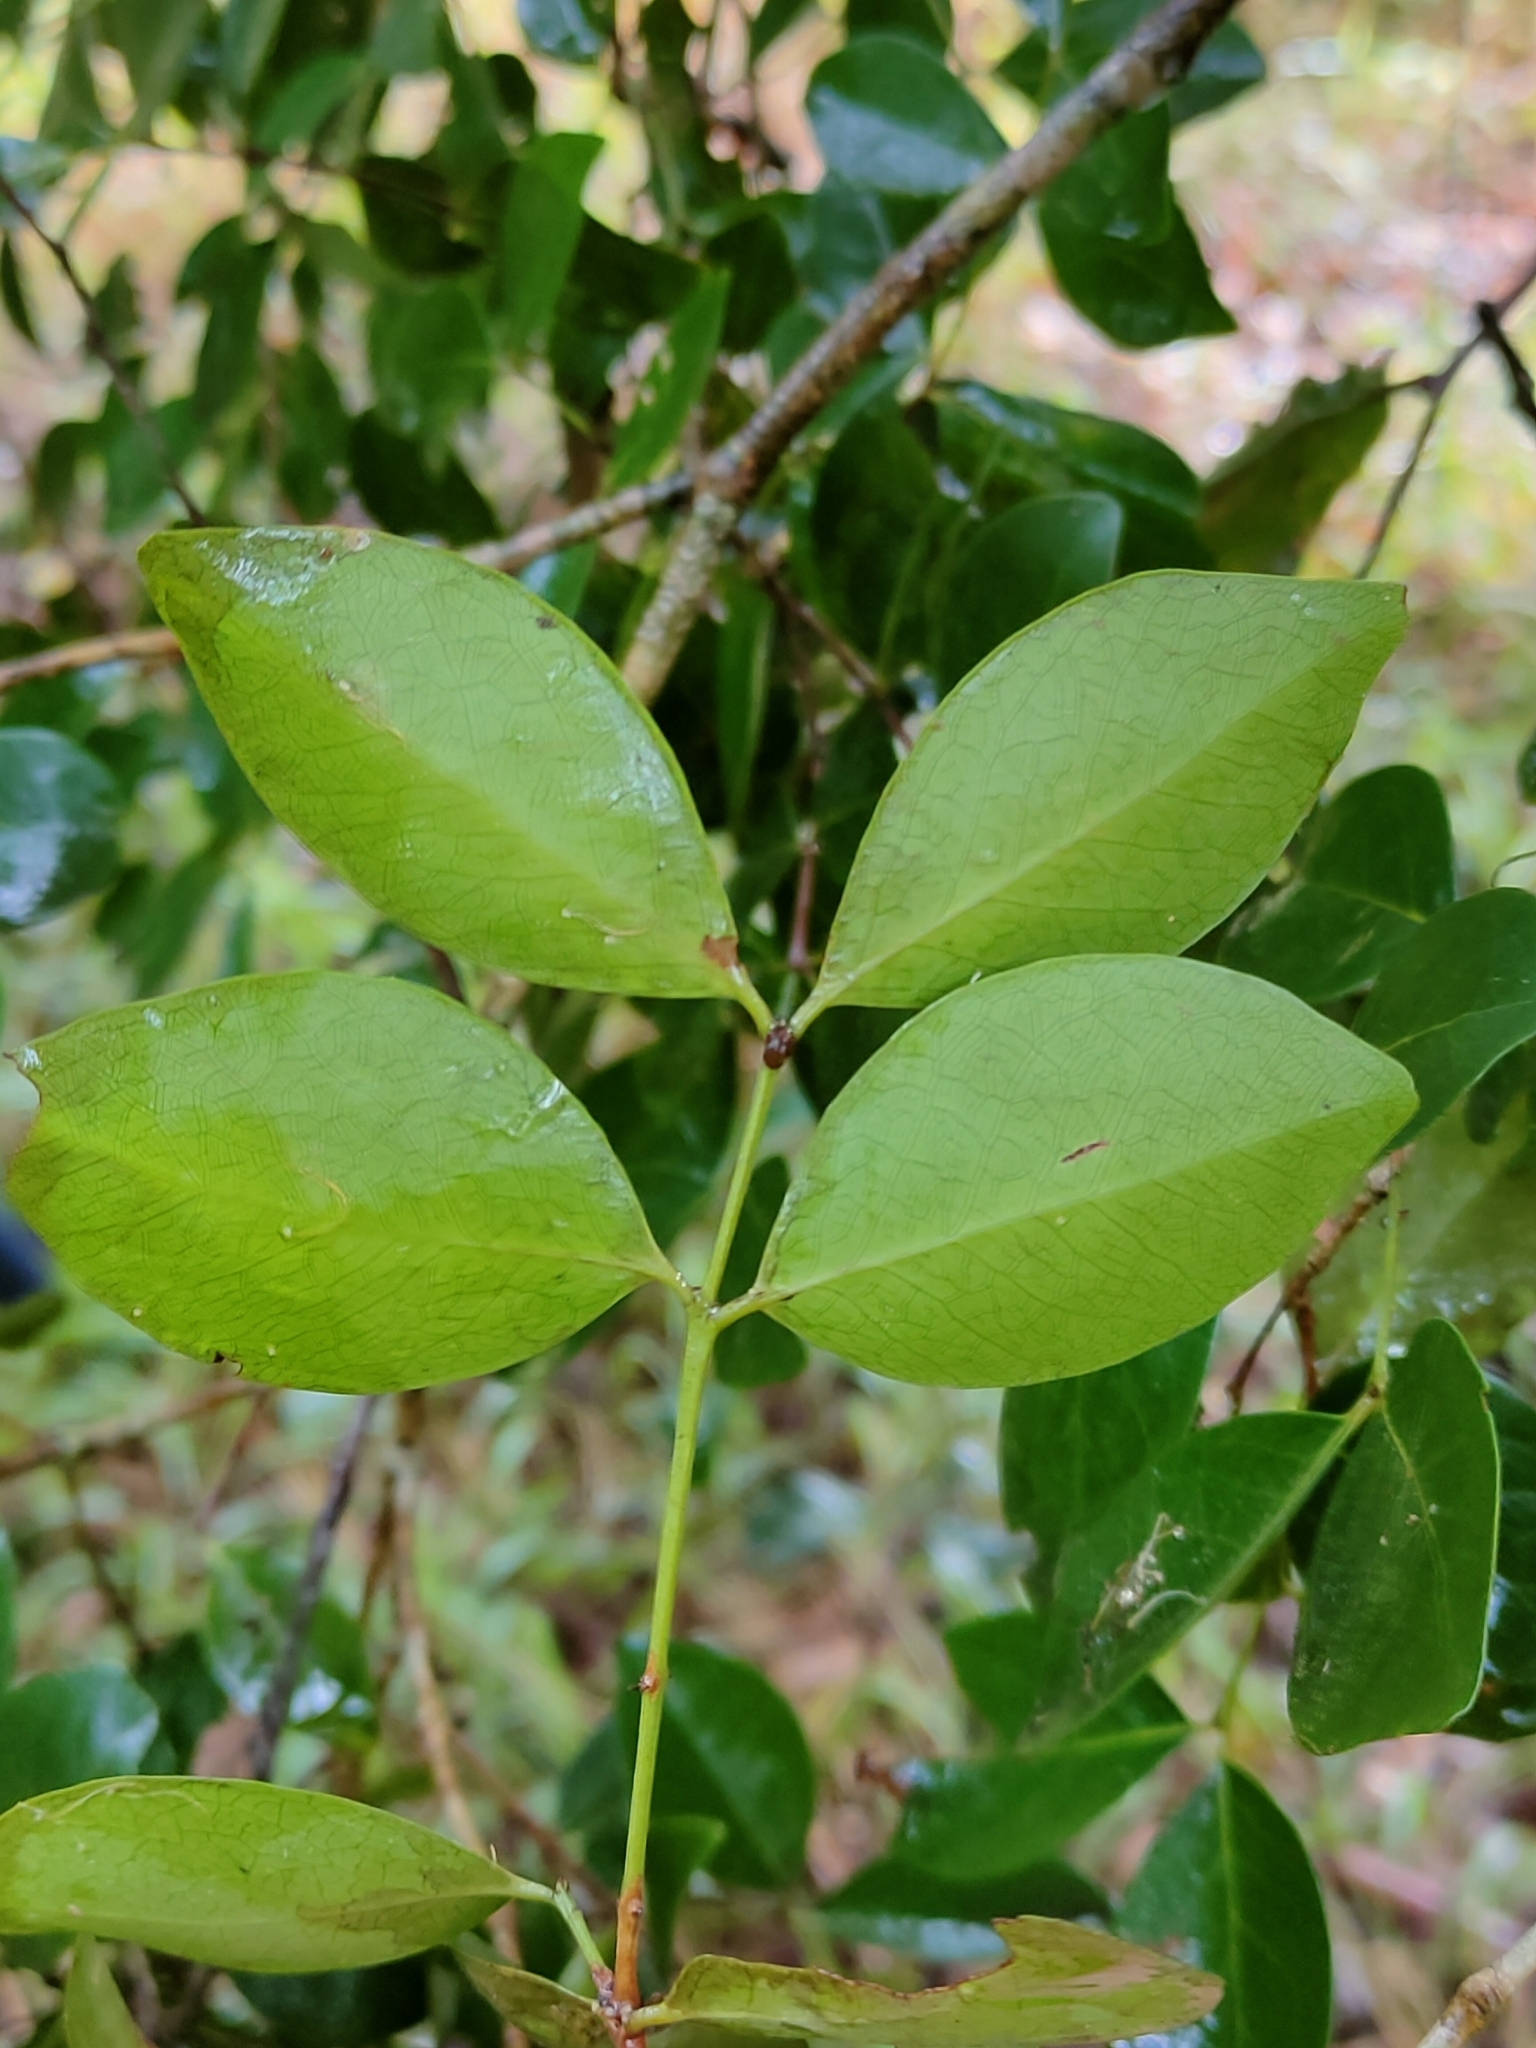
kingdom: Plantae
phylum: Tracheophyta
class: Magnoliopsida
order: Celastrales
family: Celastraceae
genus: Pleurostylia
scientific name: Pleurostylia opposita
